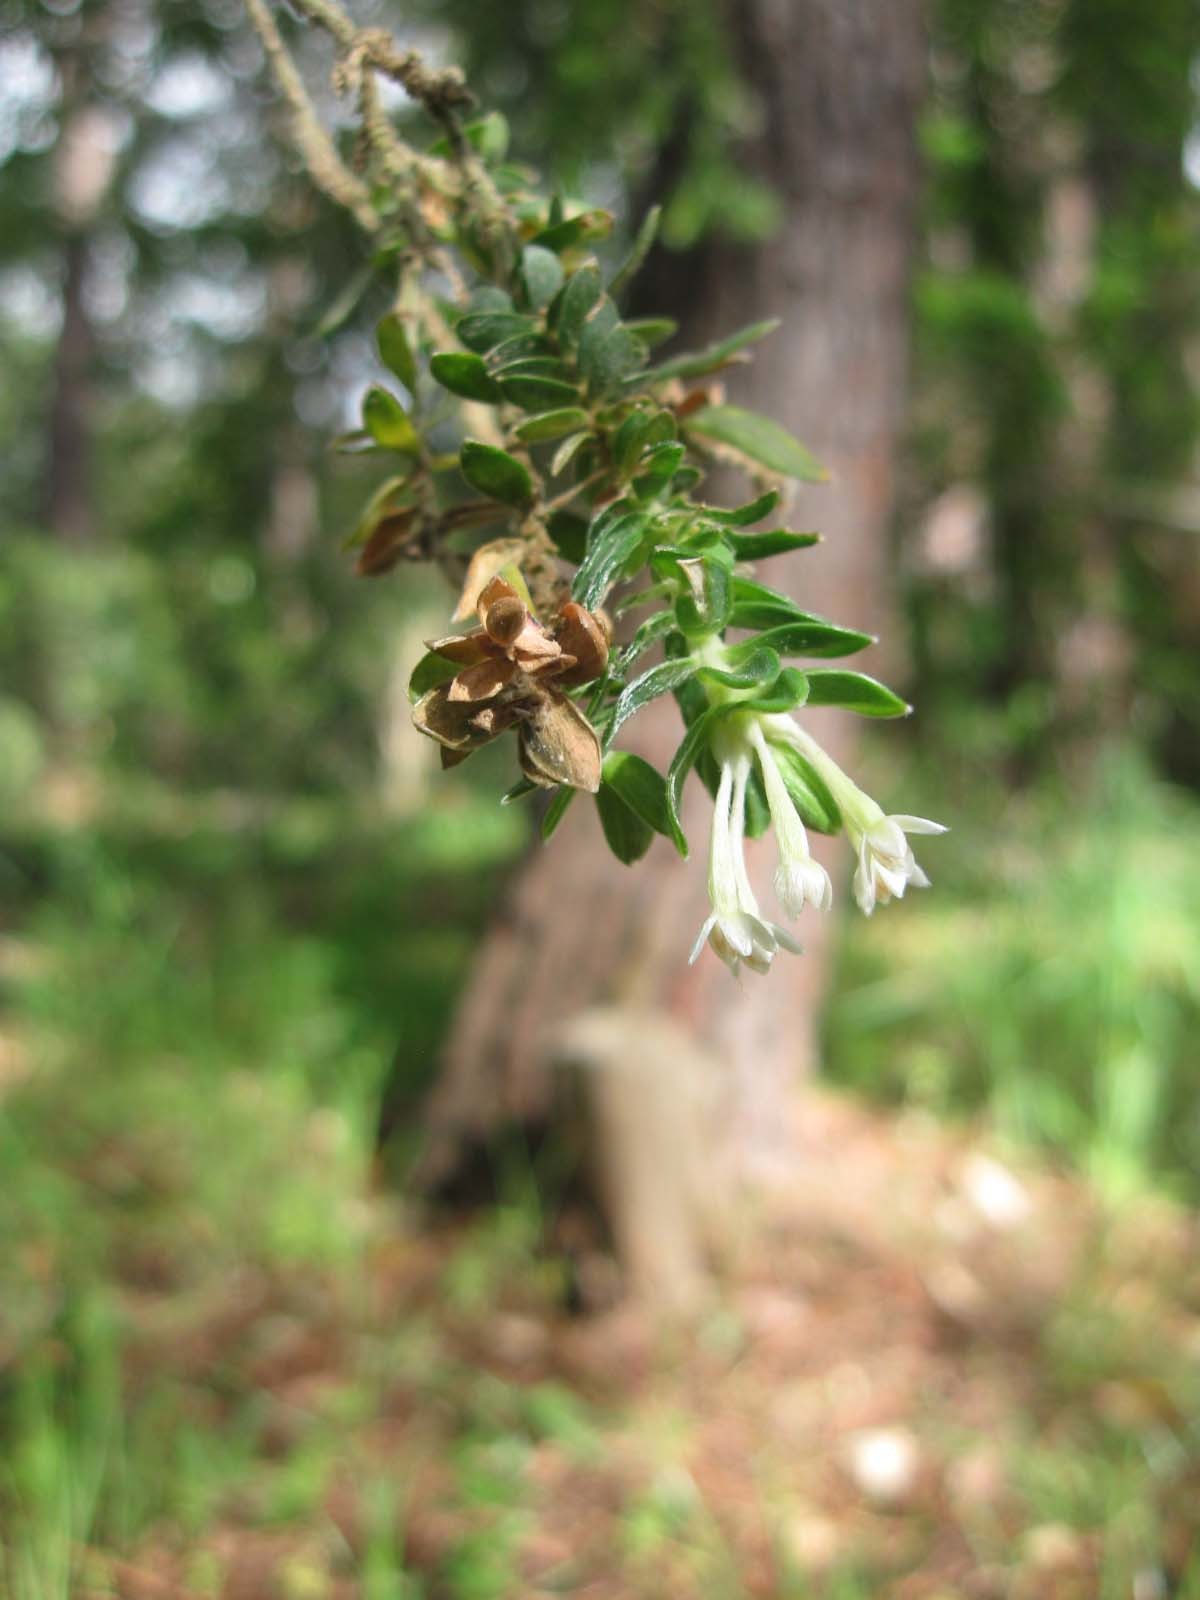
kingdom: Plantae
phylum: Tracheophyta
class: Magnoliopsida
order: Malvales
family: Thymelaeaceae
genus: Gnidia
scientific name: Gnidia sericea
